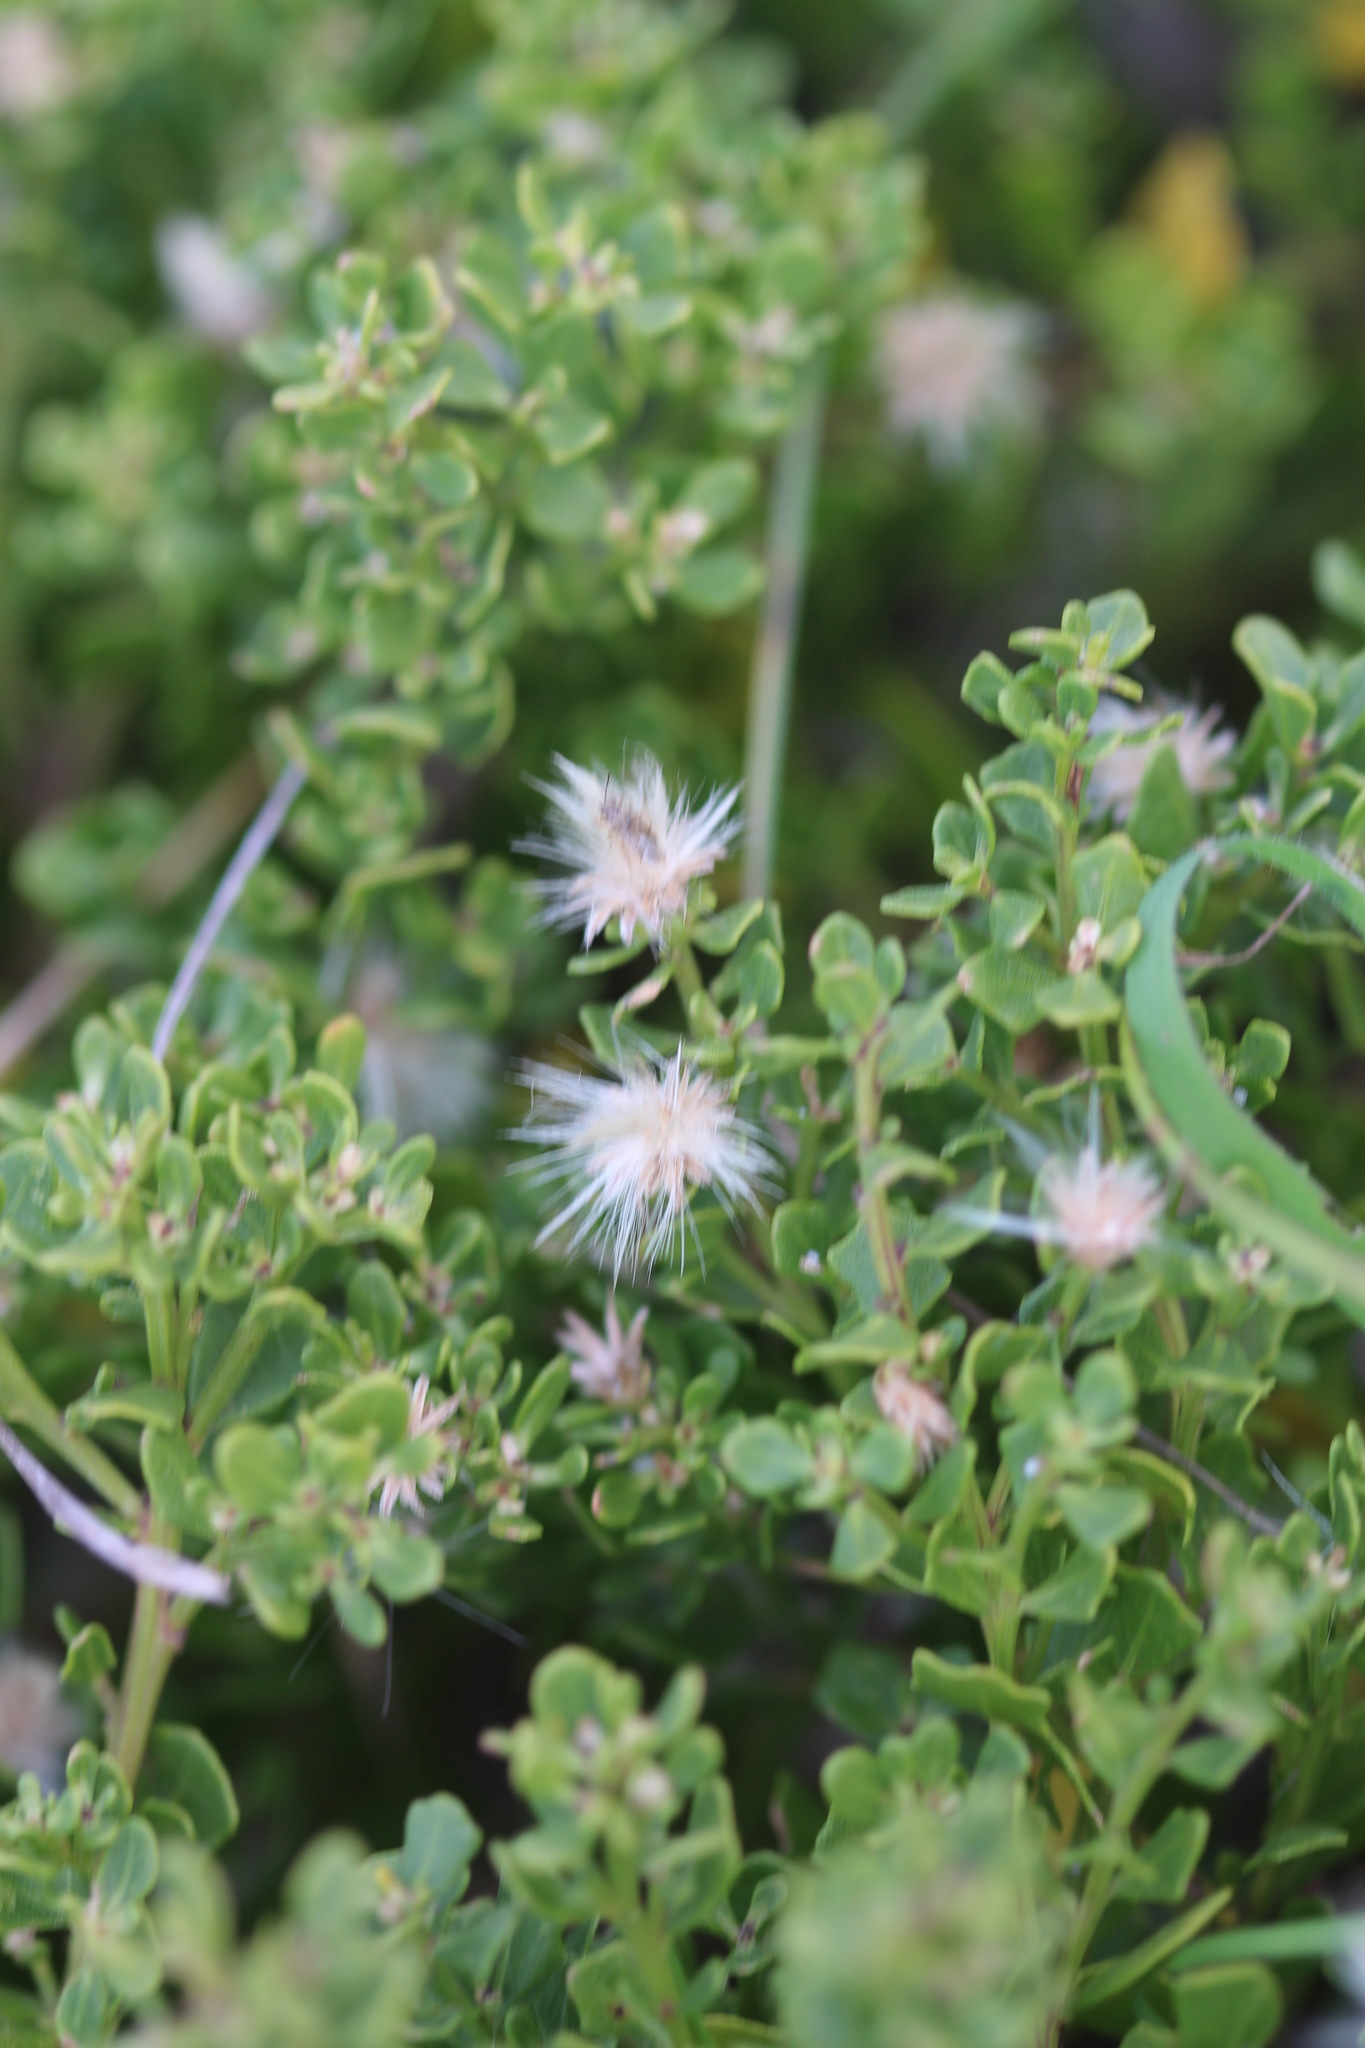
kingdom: Plantae
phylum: Tracheophyta
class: Magnoliopsida
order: Asterales
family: Asteraceae
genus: Baccharis
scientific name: Baccharis pilularis
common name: Coyotebrush
